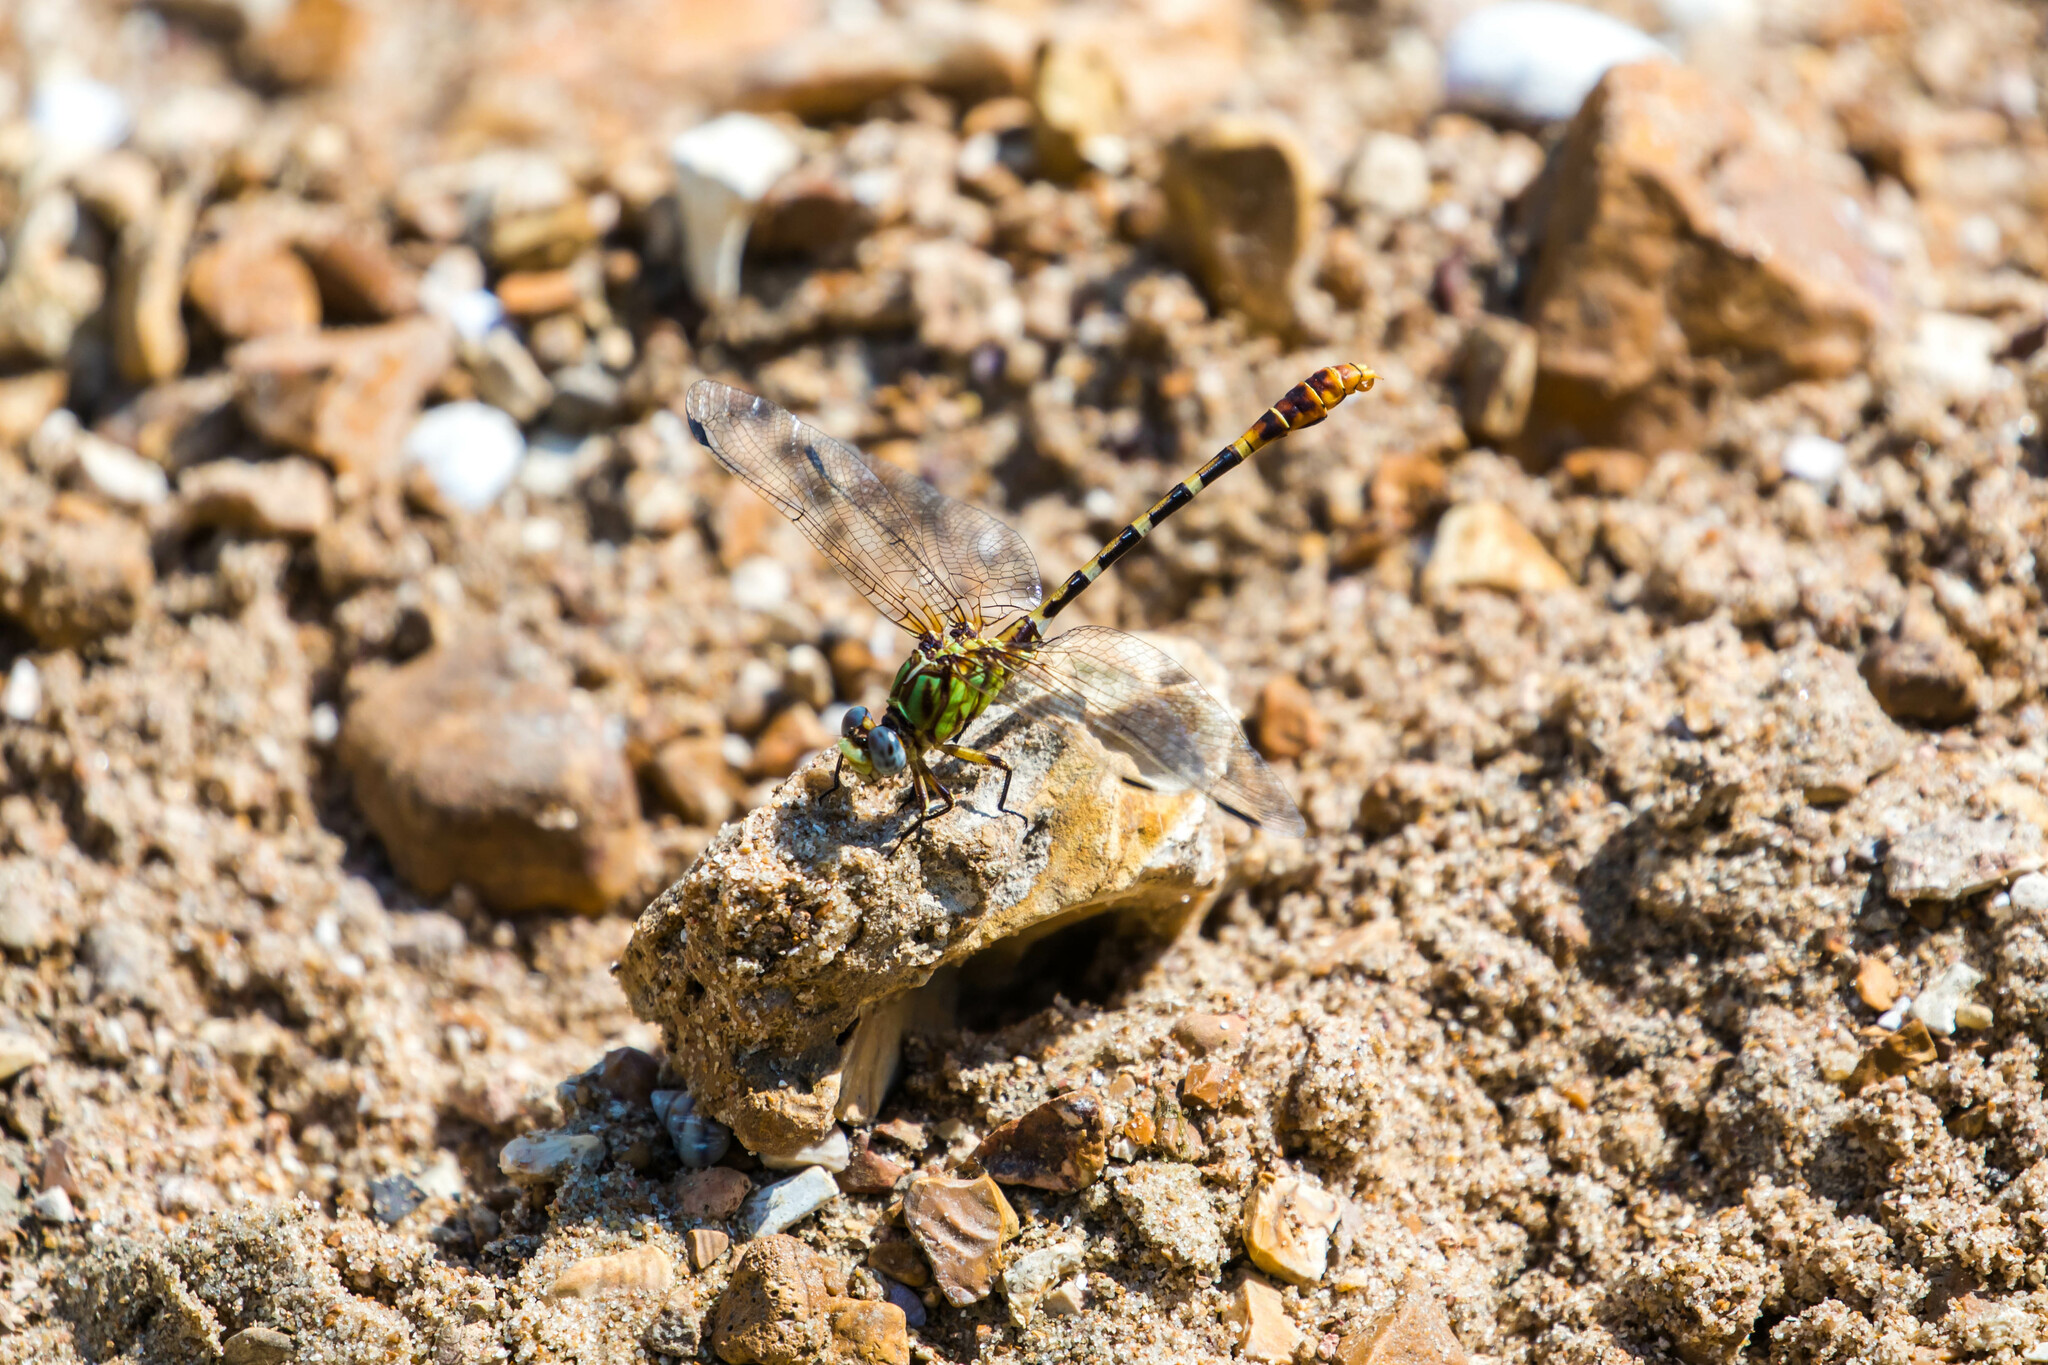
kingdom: Animalia
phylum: Arthropoda
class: Insecta
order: Odonata
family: Gomphidae
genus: Erpetogomphus
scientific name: Erpetogomphus designatus
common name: Eastern ringtail
